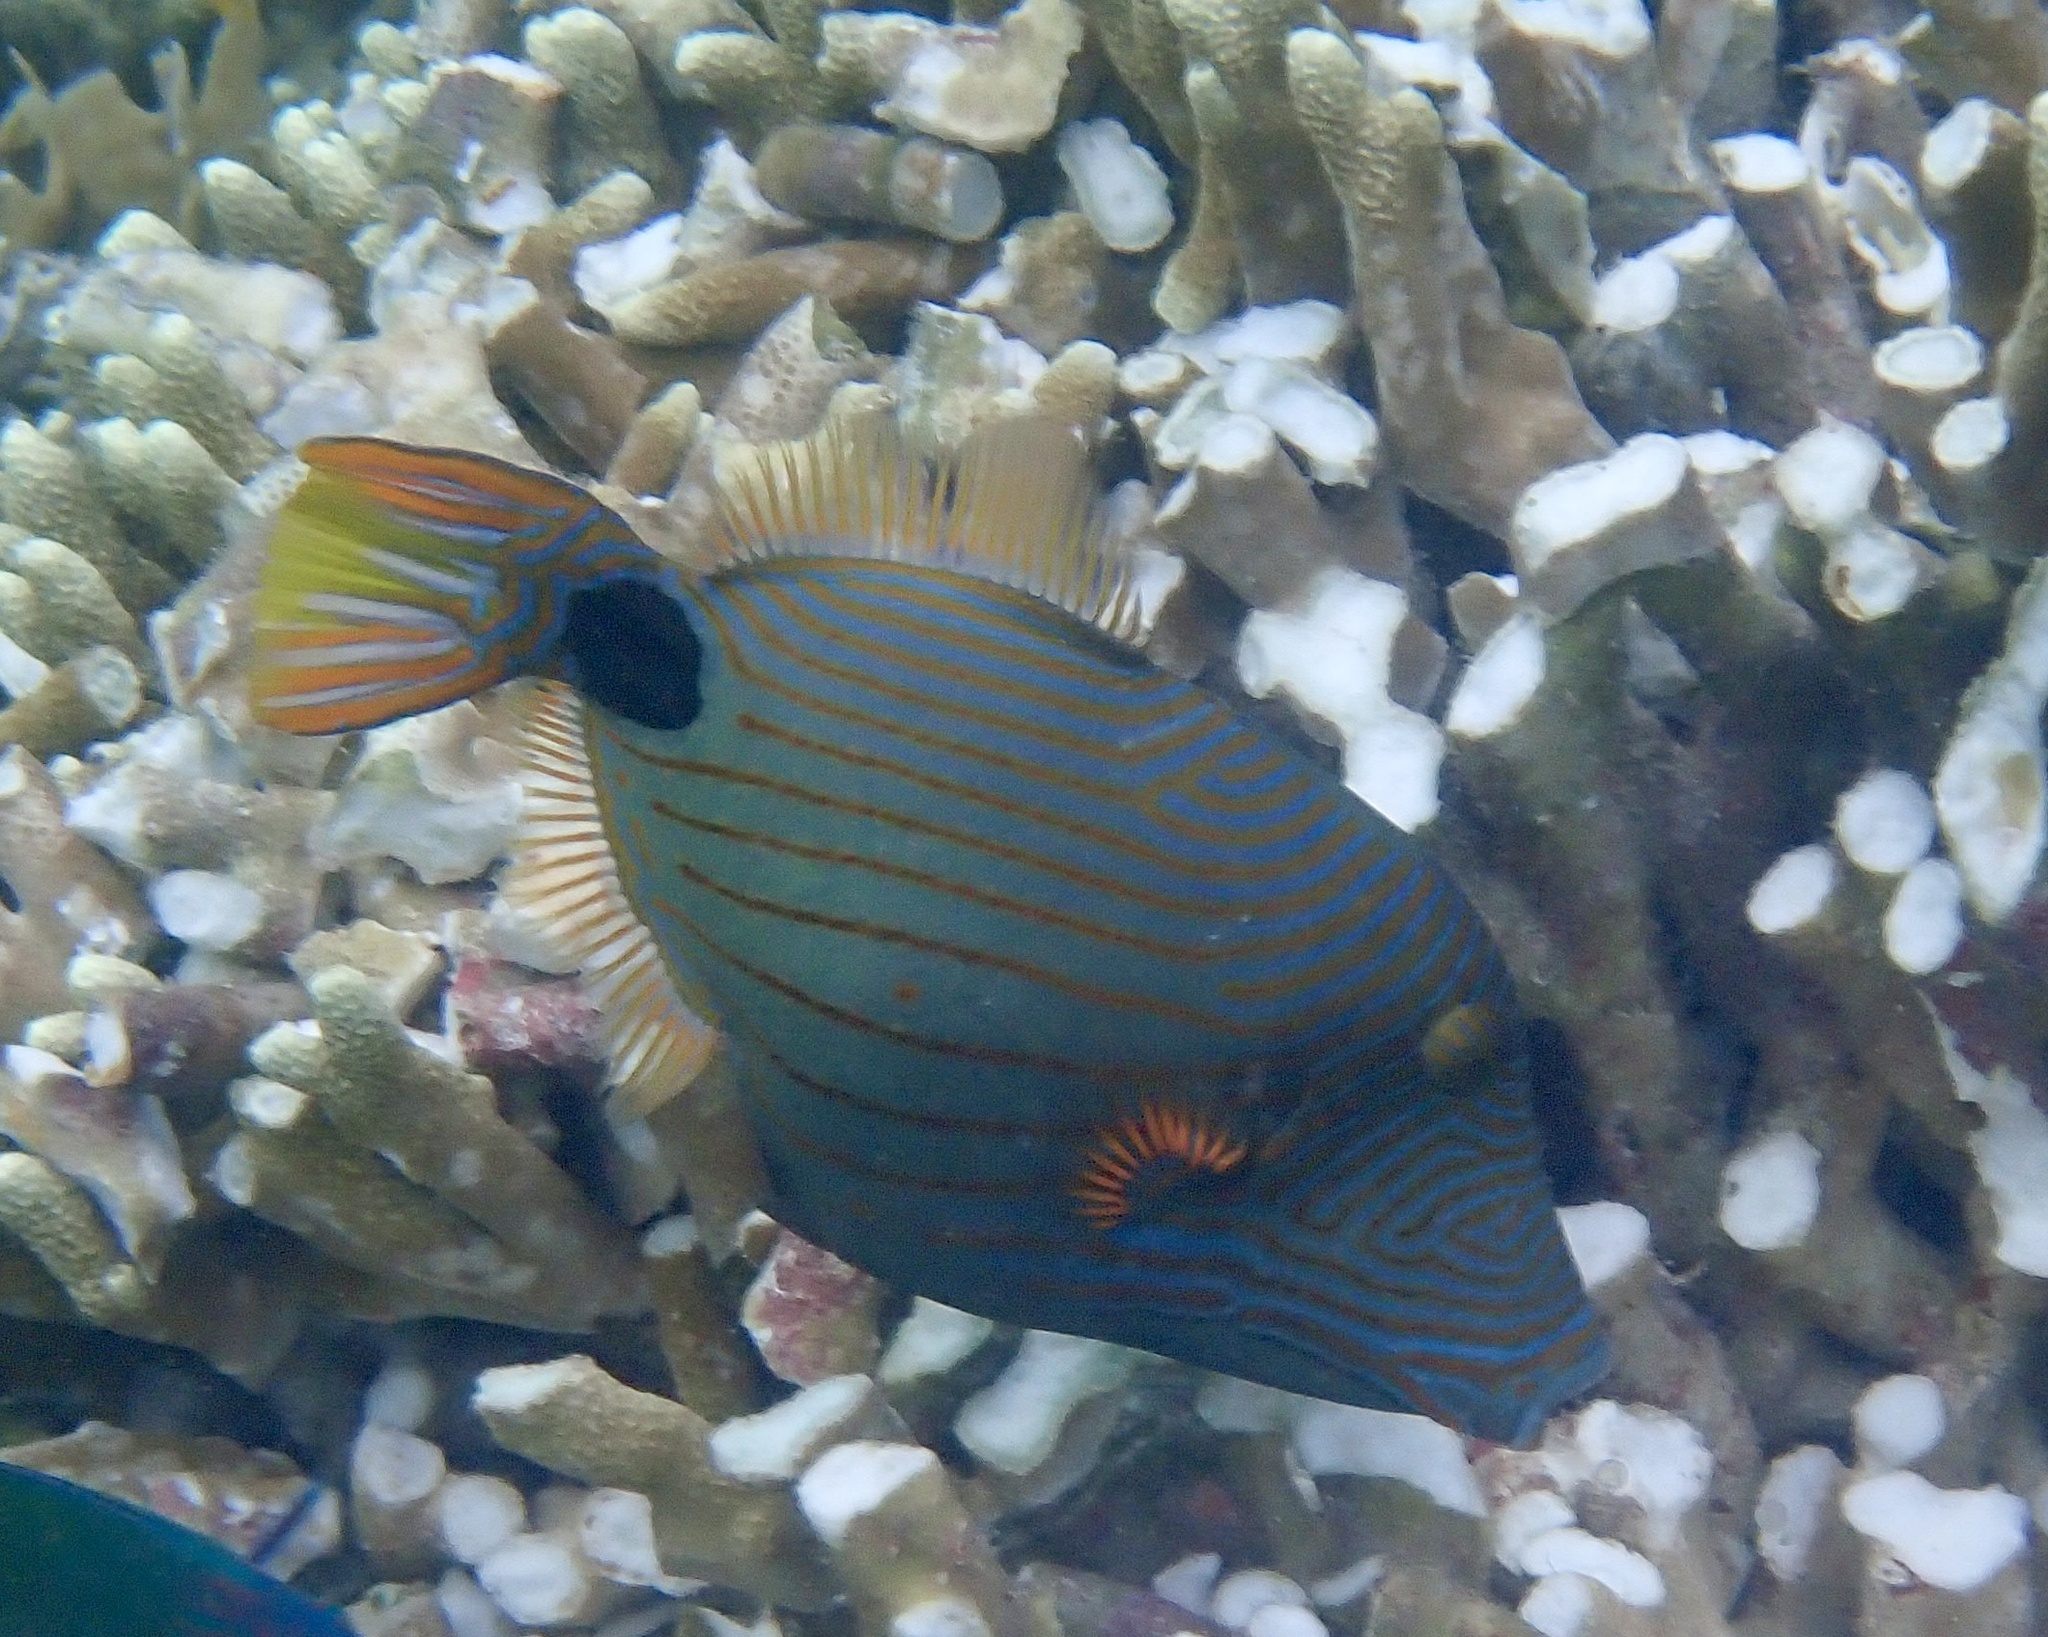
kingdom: Animalia
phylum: Chordata
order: Tetraodontiformes
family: Balistidae
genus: Balistapus
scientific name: Balistapus undulatus
